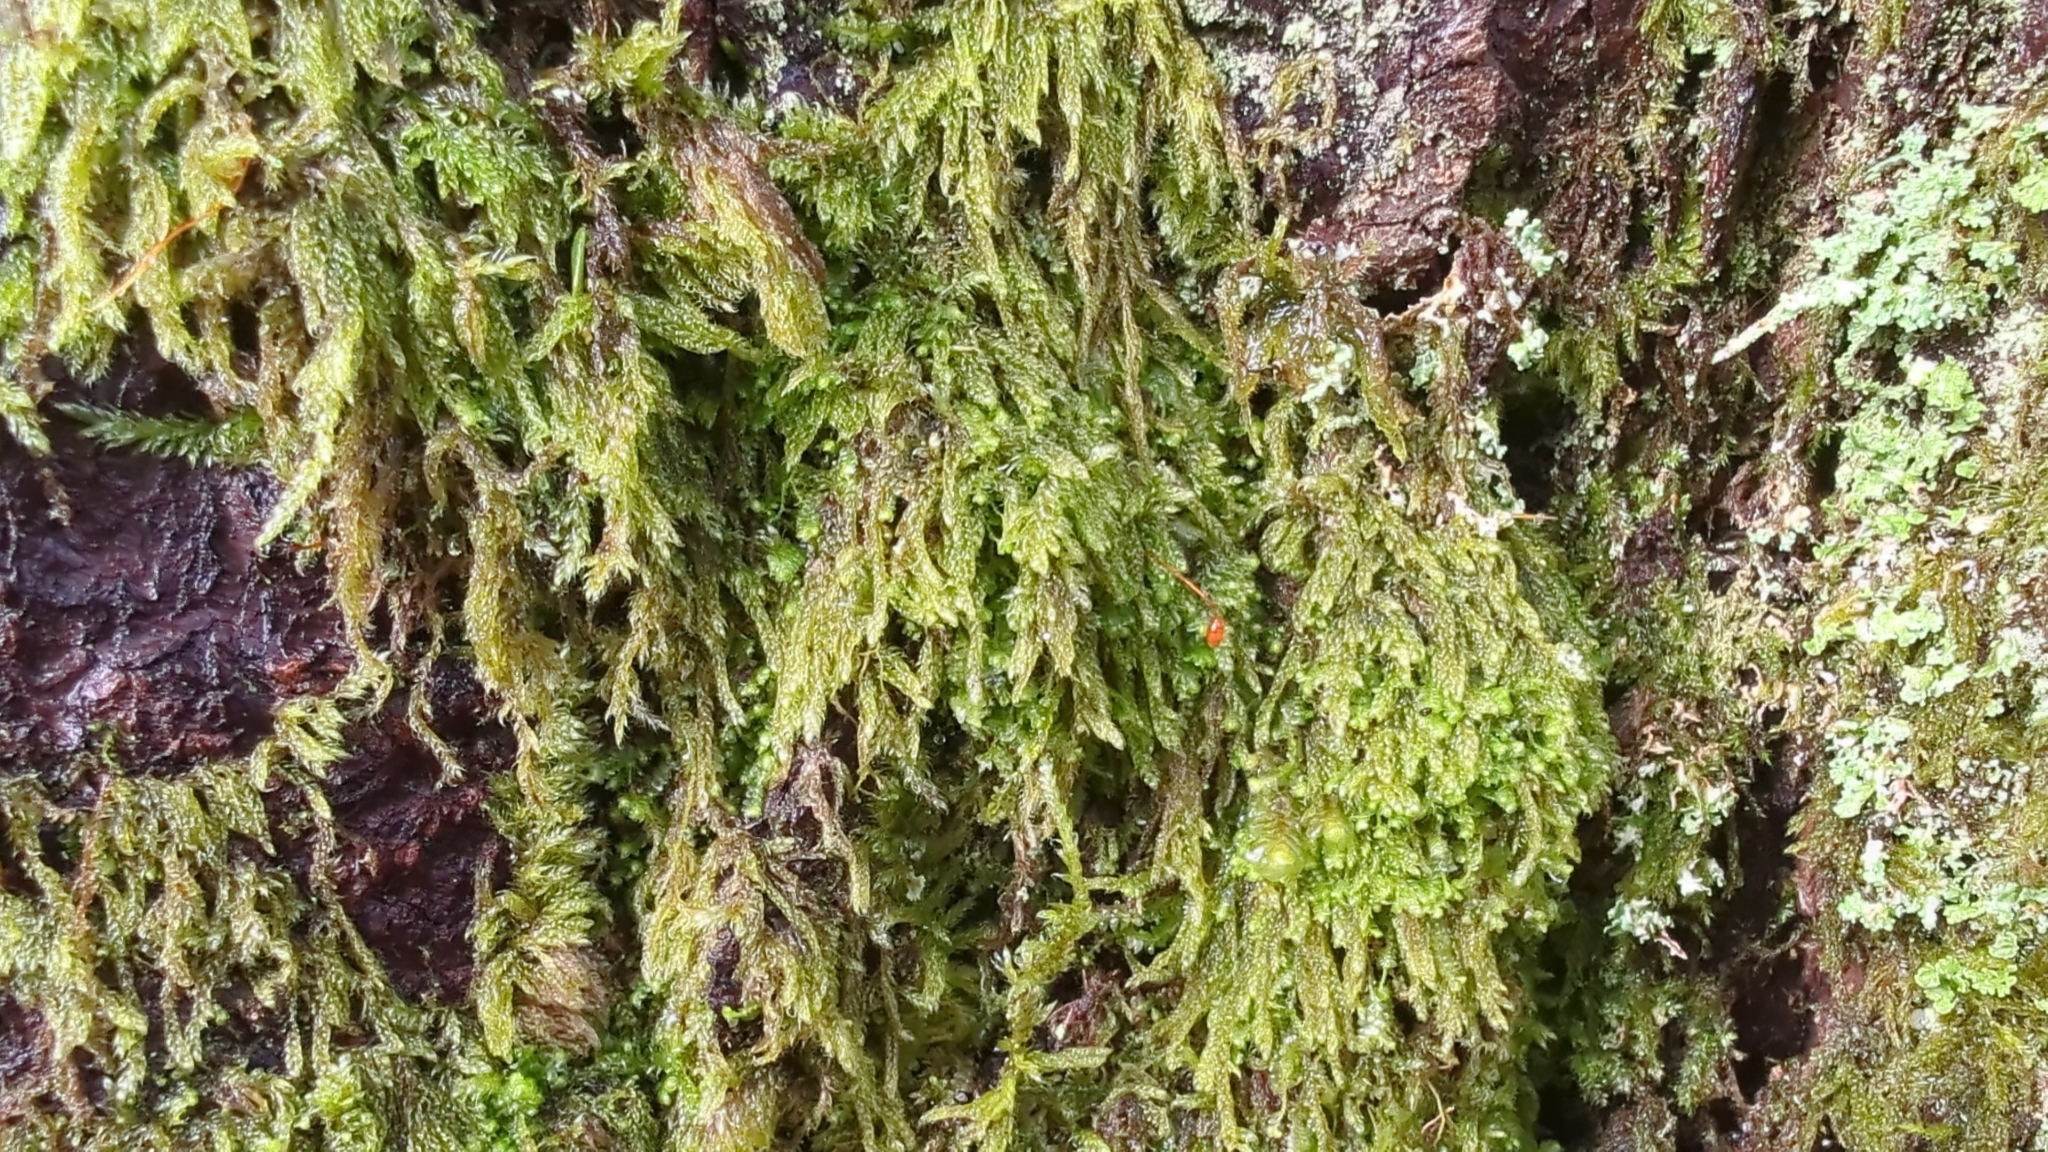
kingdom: Plantae
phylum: Bryophyta
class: Bryopsida
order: Hypnales
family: Pylaisiadelphaceae
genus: Trochophyllohypnum
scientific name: Trochophyllohypnum circinale
